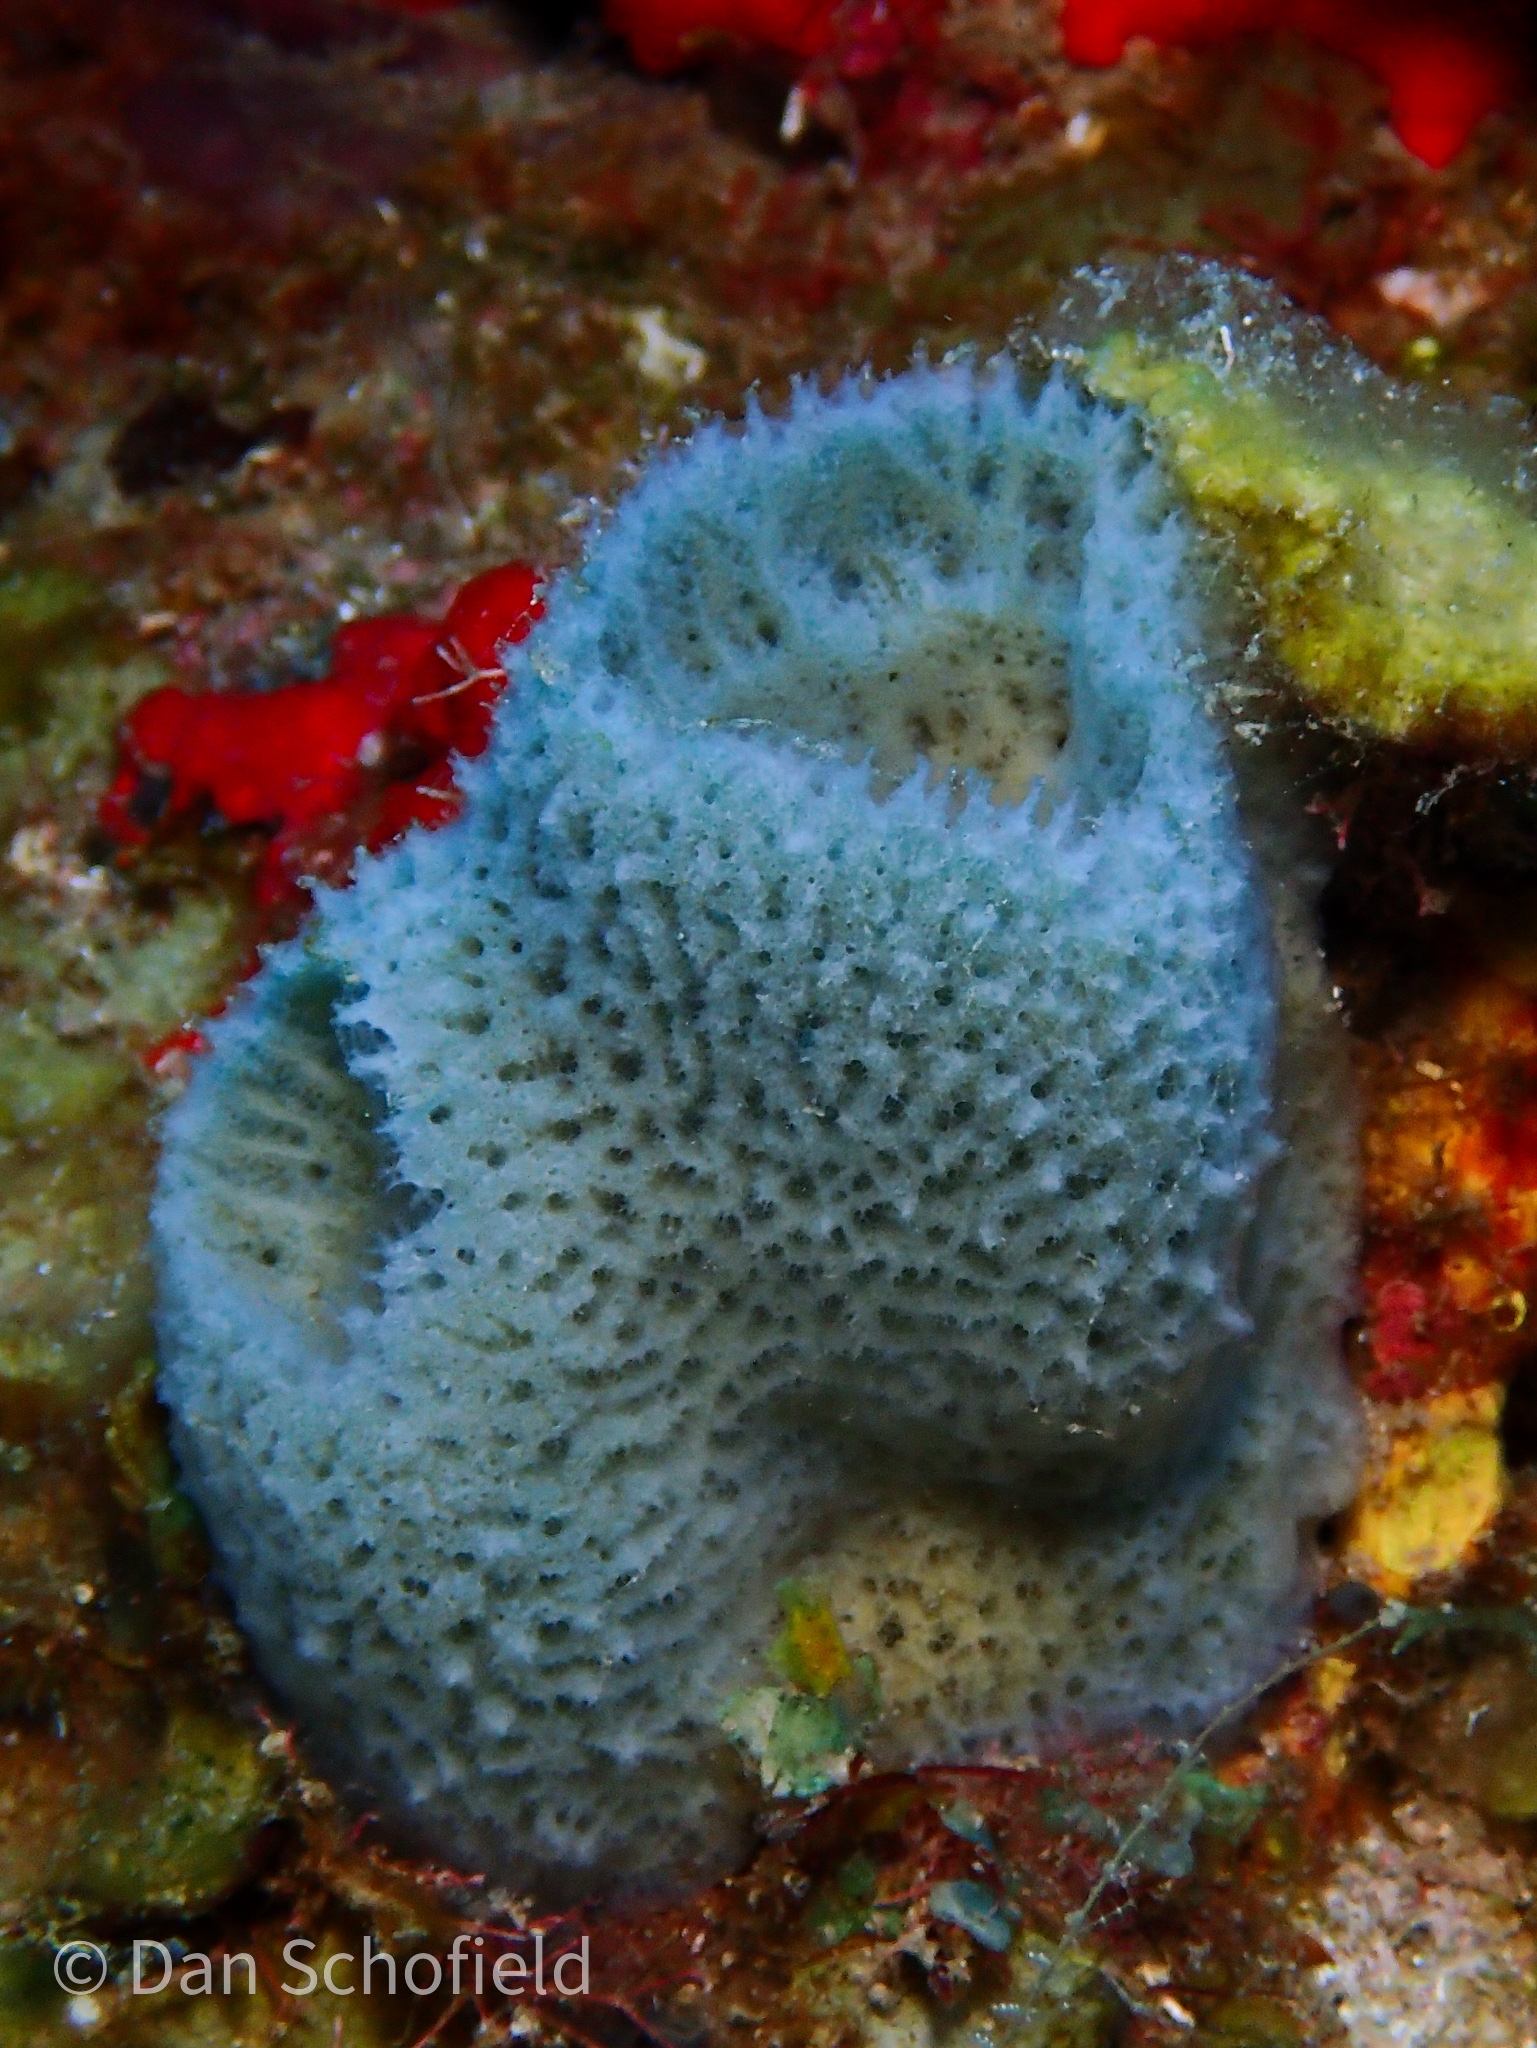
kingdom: Animalia
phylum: Porifera
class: Demospongiae
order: Haplosclerida
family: Niphatidae
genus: Niphates
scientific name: Niphates digitalis
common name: Pink vase sponge
